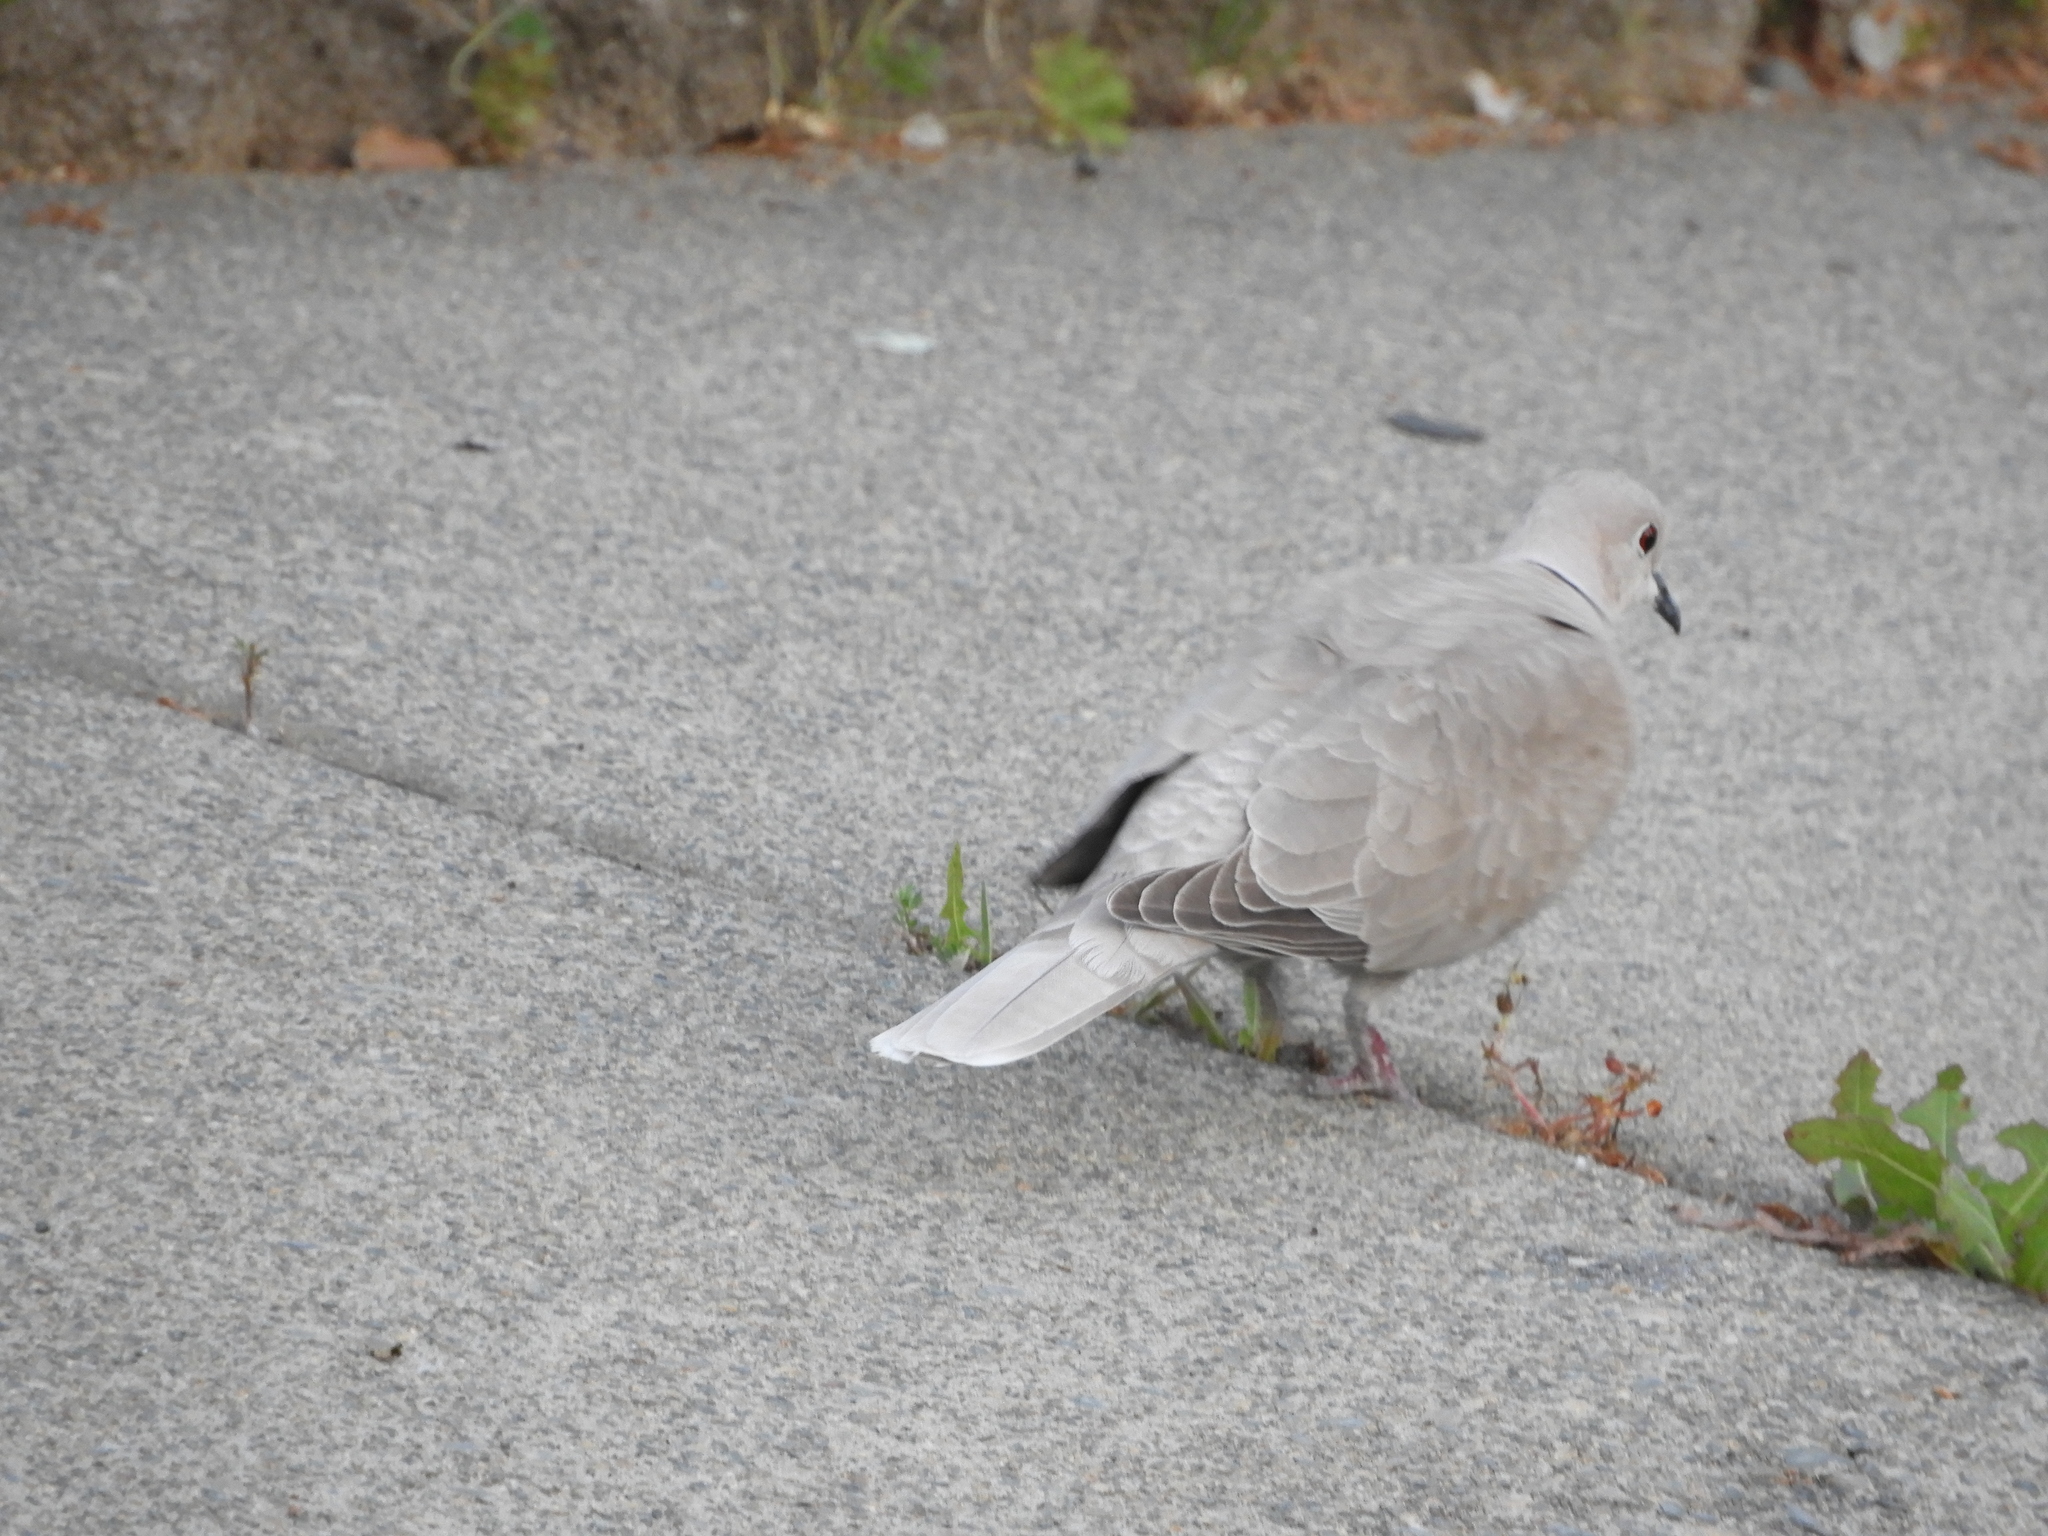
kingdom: Animalia
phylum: Chordata
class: Aves
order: Columbiformes
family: Columbidae
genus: Streptopelia
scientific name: Streptopelia decaocto
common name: Eurasian collared dove
